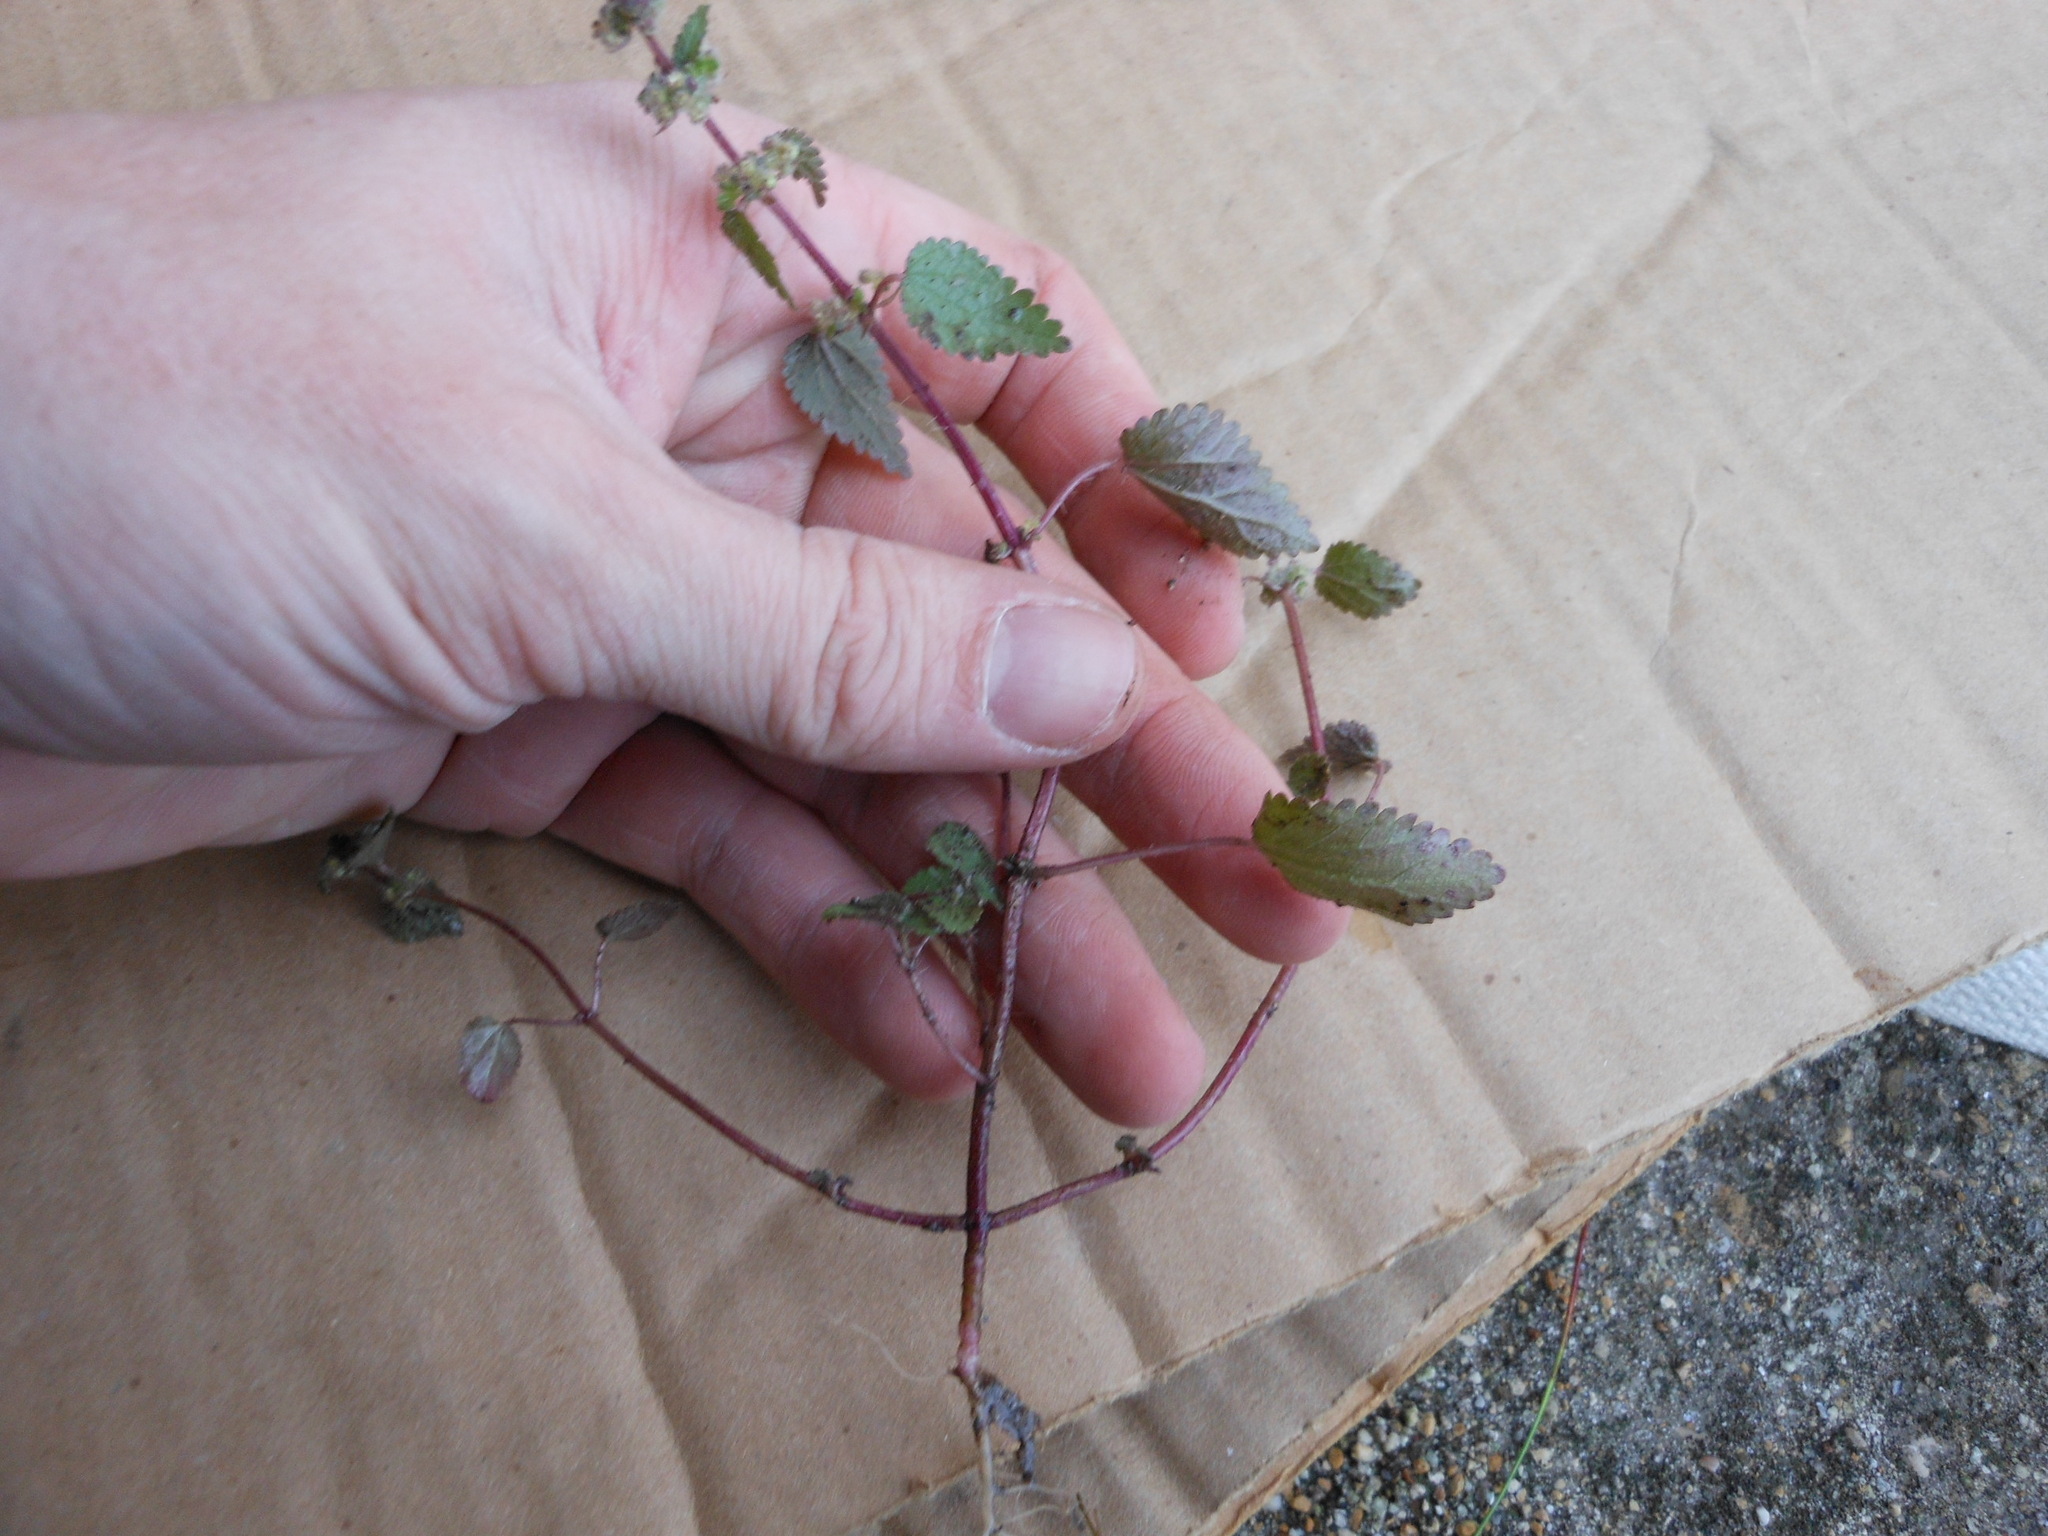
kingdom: Plantae
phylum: Tracheophyta
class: Magnoliopsida
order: Rosales
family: Urticaceae
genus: Urtica
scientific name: Urtica chamaedryoides
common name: Heart-leaf nettle
